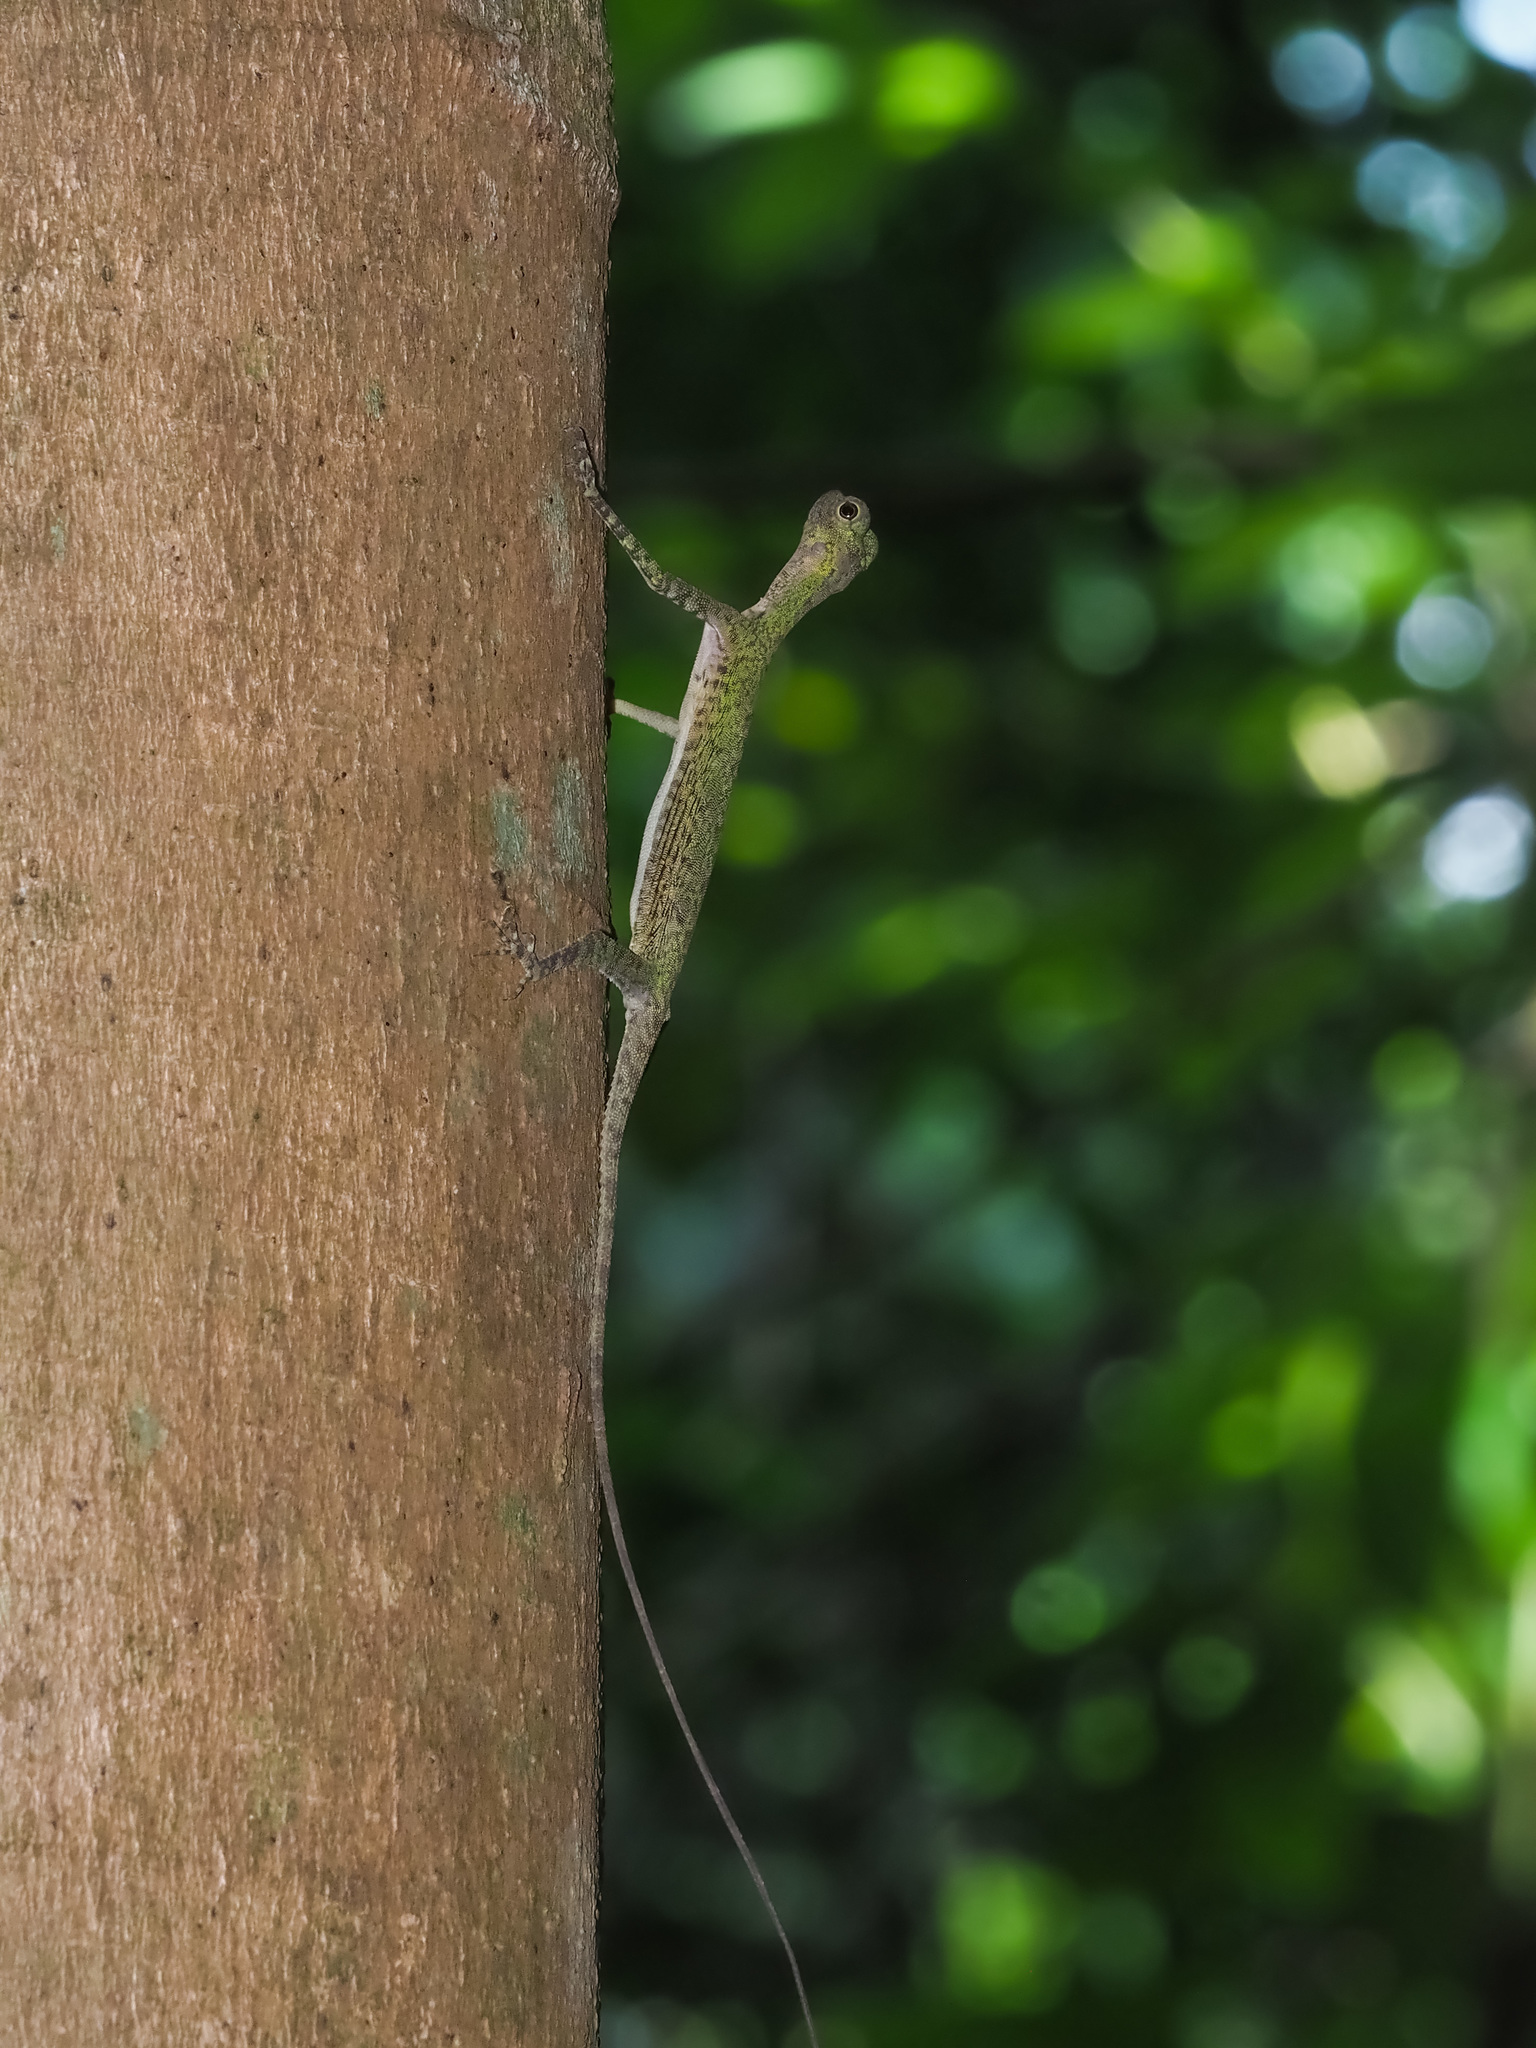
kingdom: Animalia
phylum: Chordata
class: Squamata
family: Agamidae
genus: Draco
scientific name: Draco melanopogon
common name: Black-barbed flying dragon
